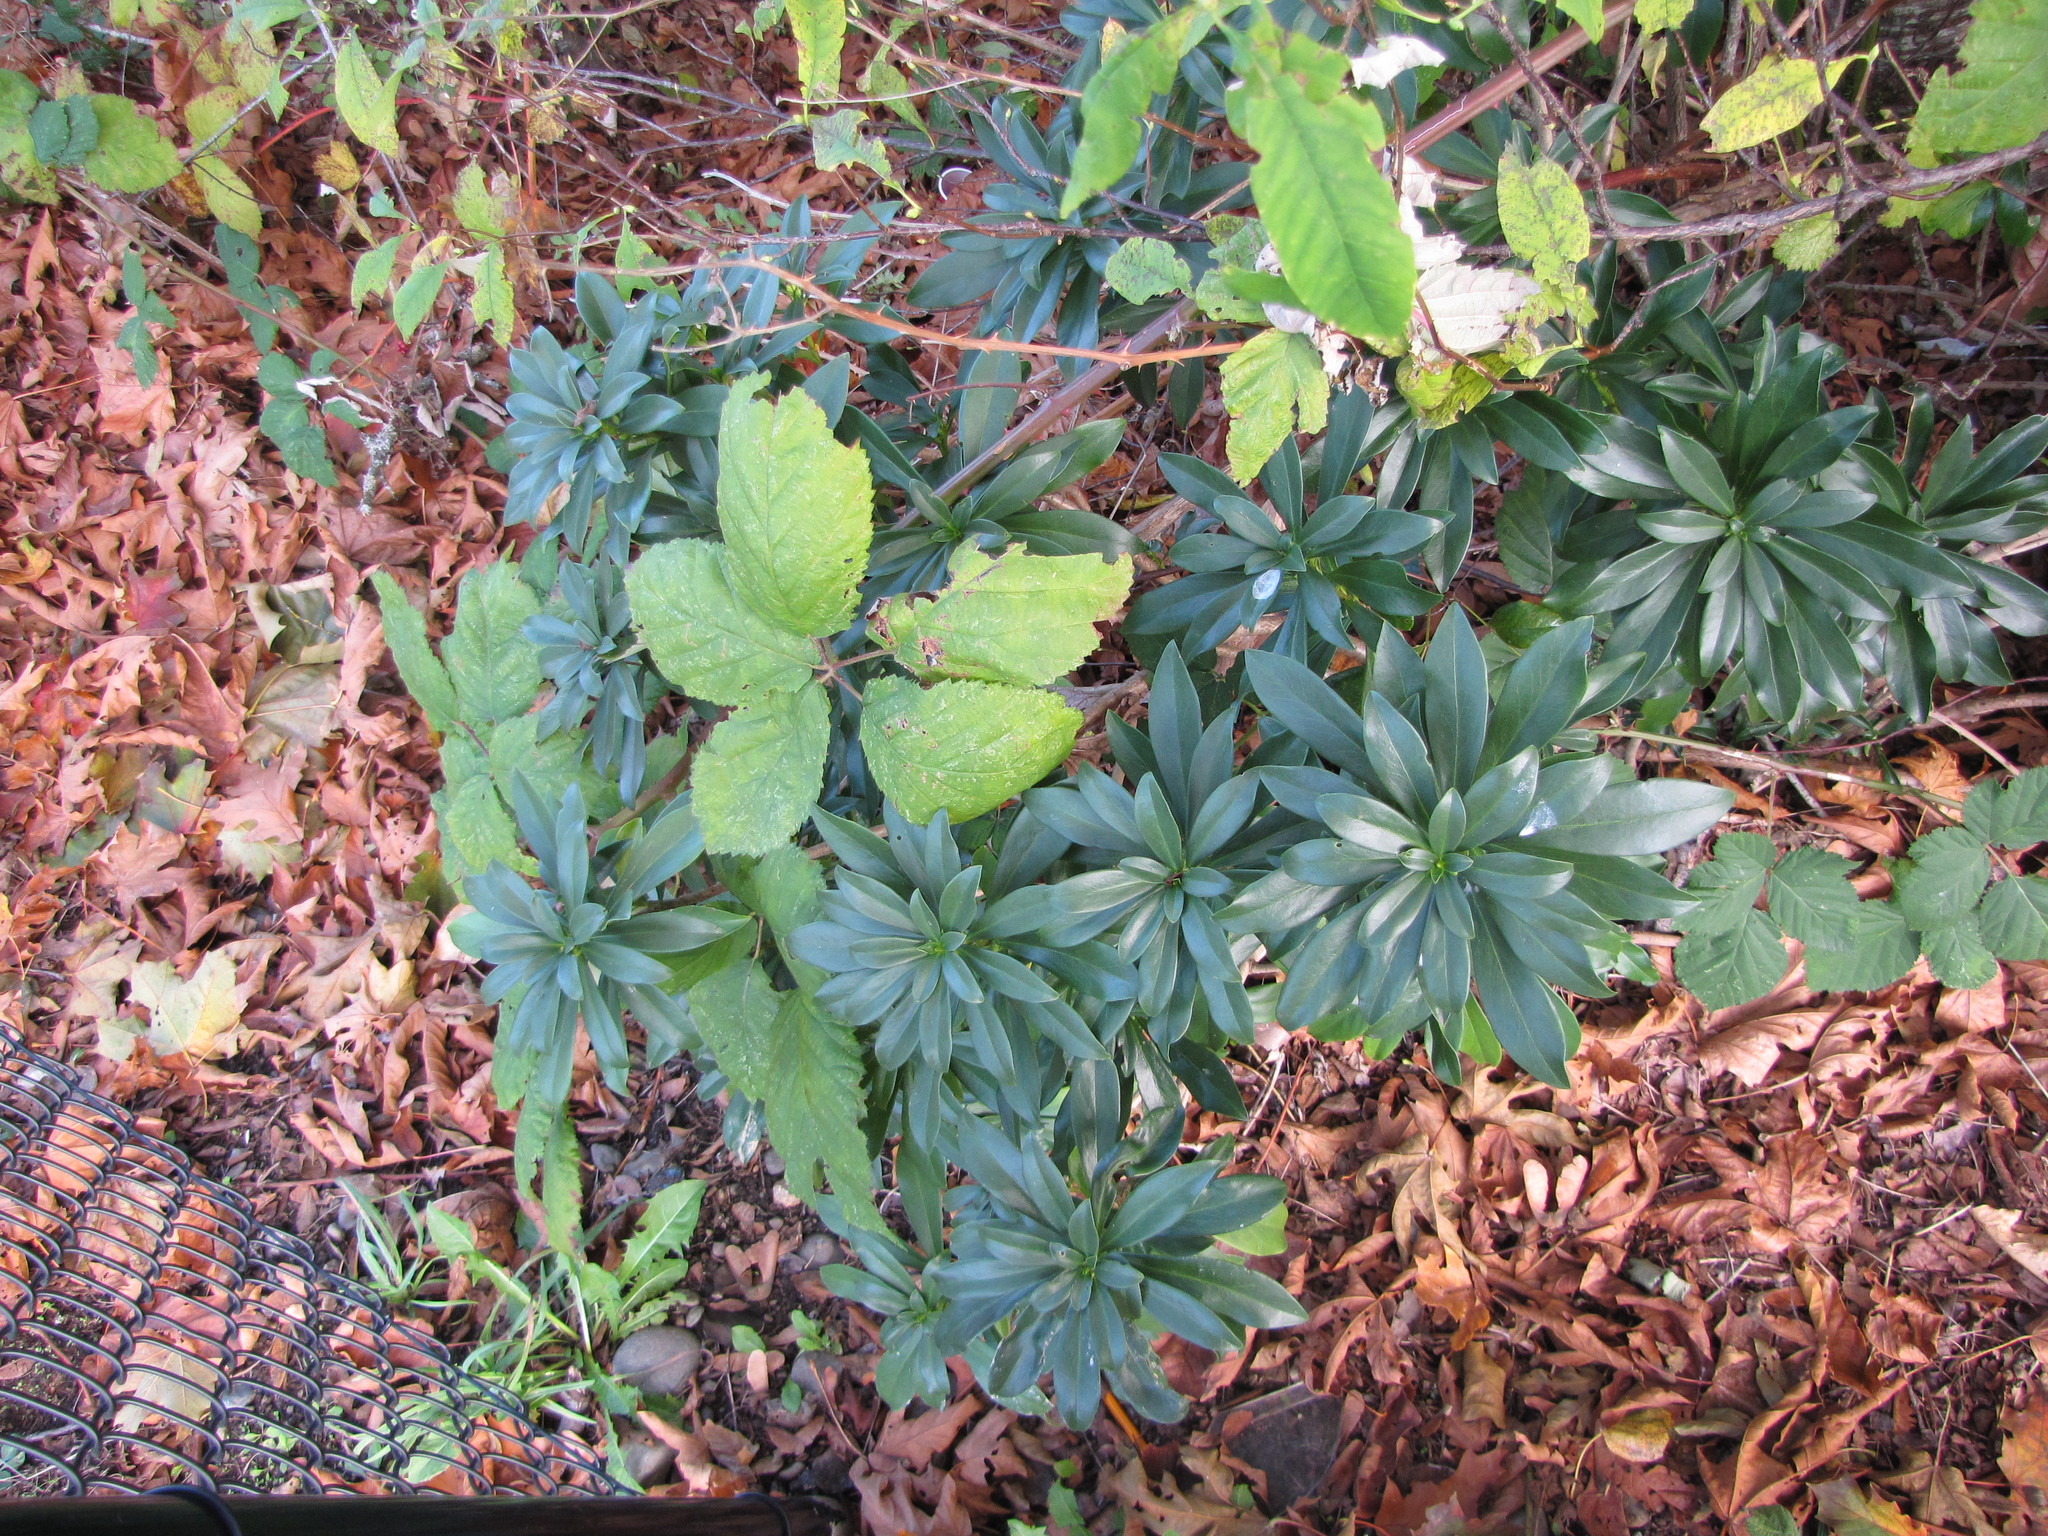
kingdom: Plantae
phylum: Tracheophyta
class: Magnoliopsida
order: Malvales
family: Thymelaeaceae
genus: Daphne
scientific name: Daphne laureola
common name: Spurge-laurel
